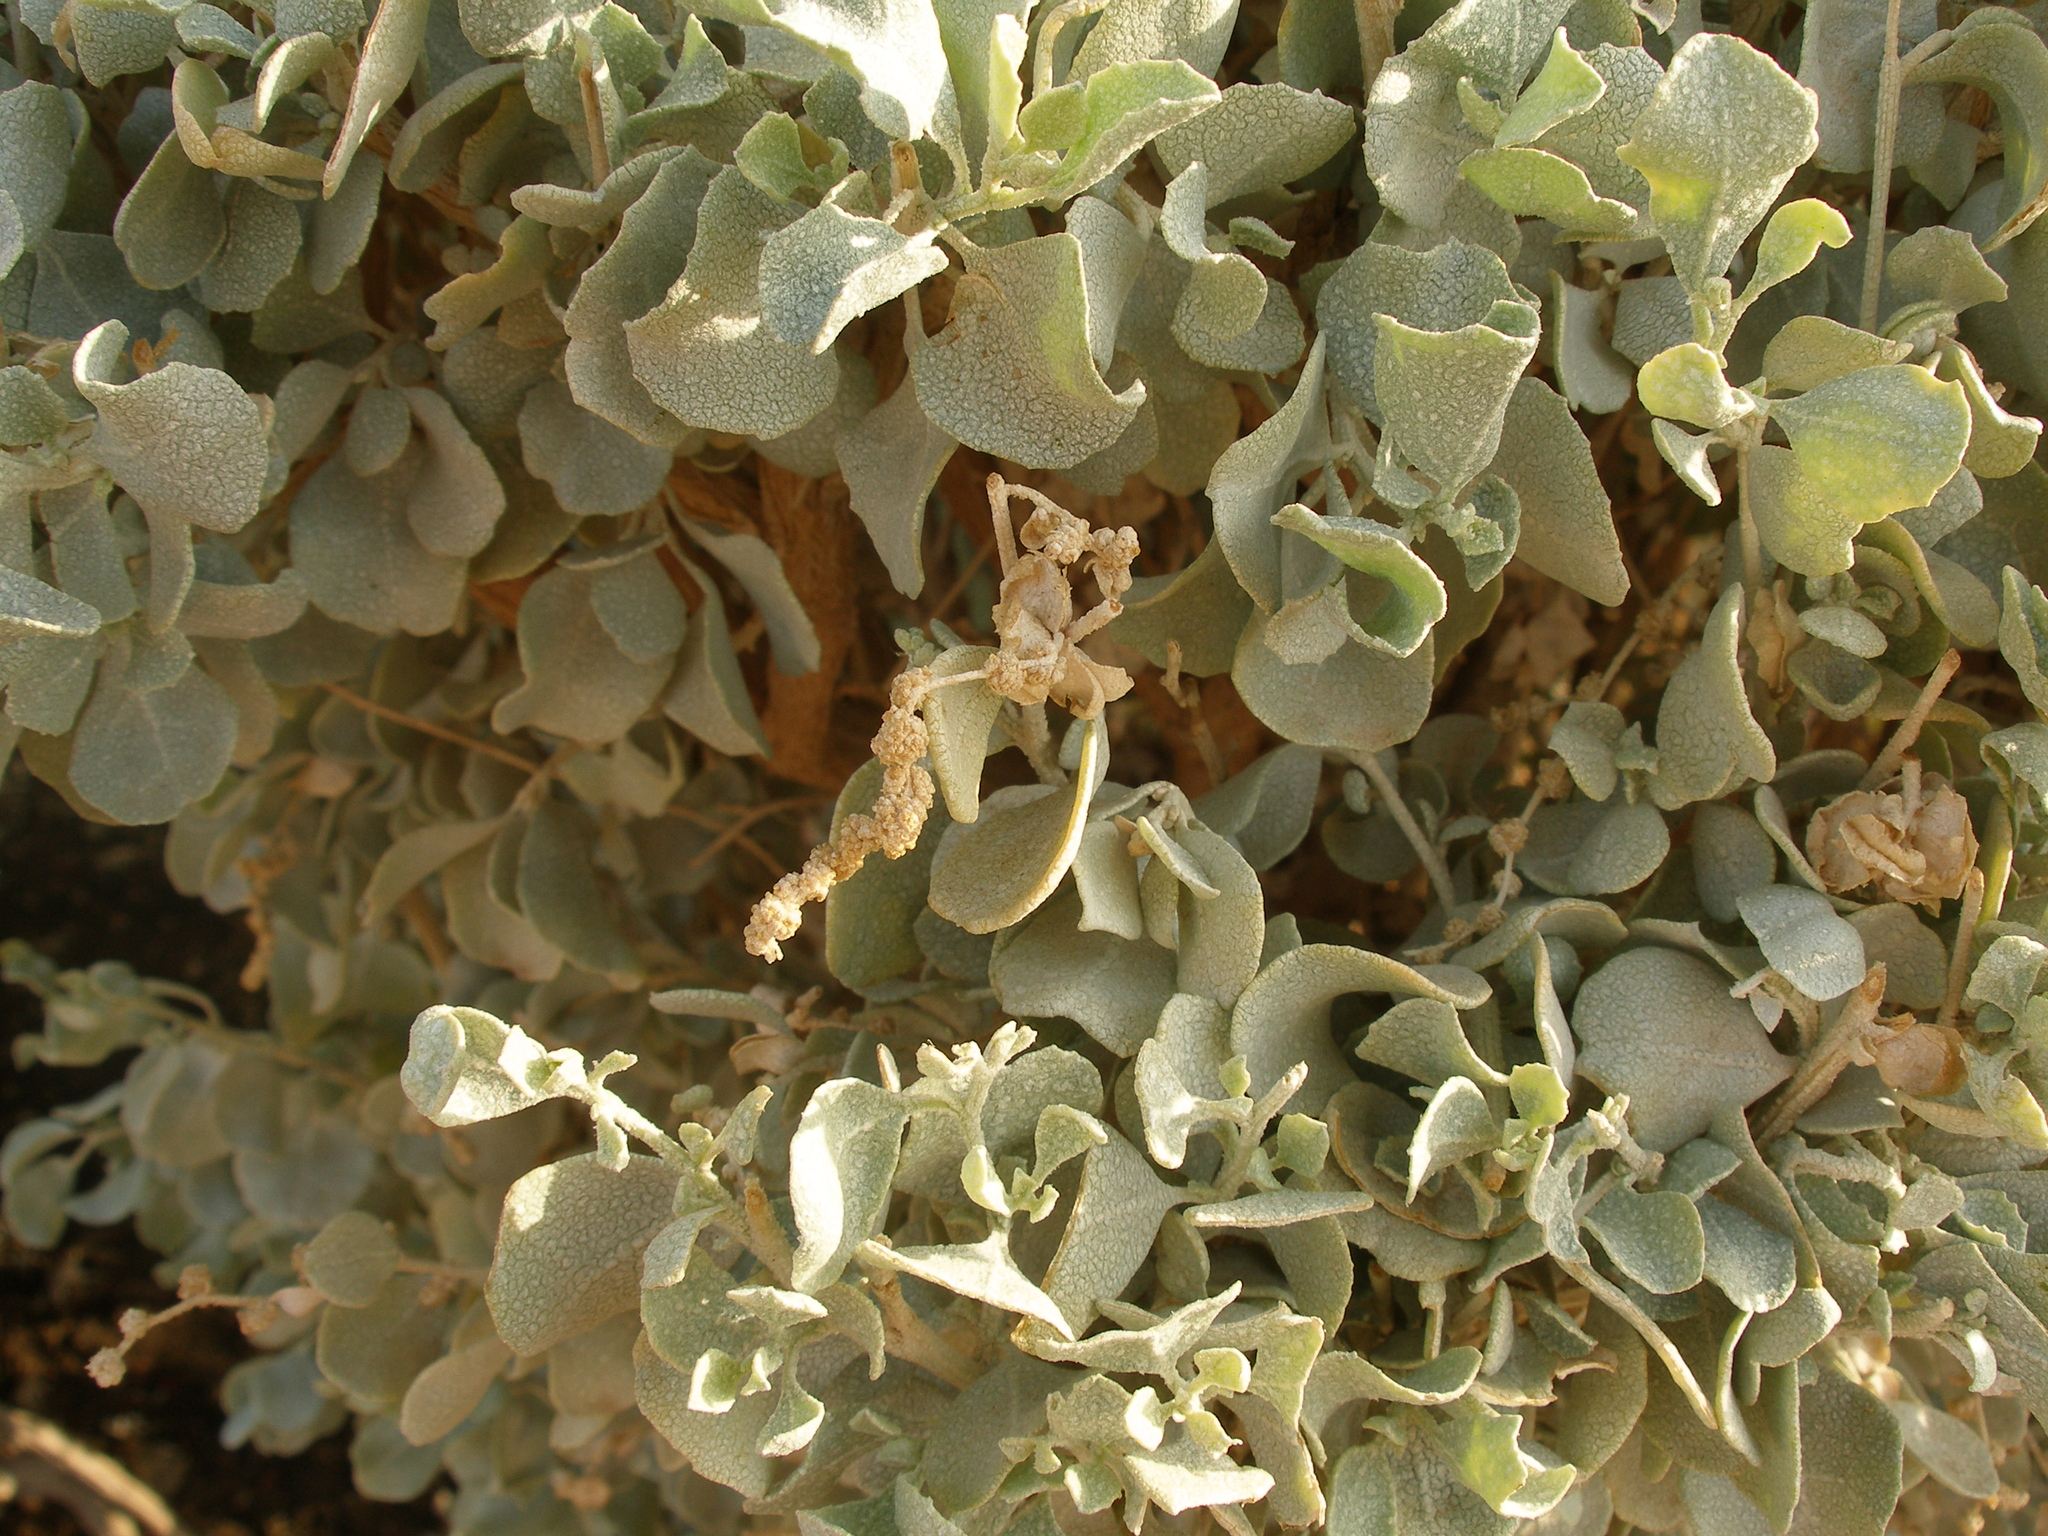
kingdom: Plantae
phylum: Tracheophyta
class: Magnoliopsida
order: Caryophyllales
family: Amaranthaceae
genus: Atriplex
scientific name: Atriplex halimus
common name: Shrubby orache
